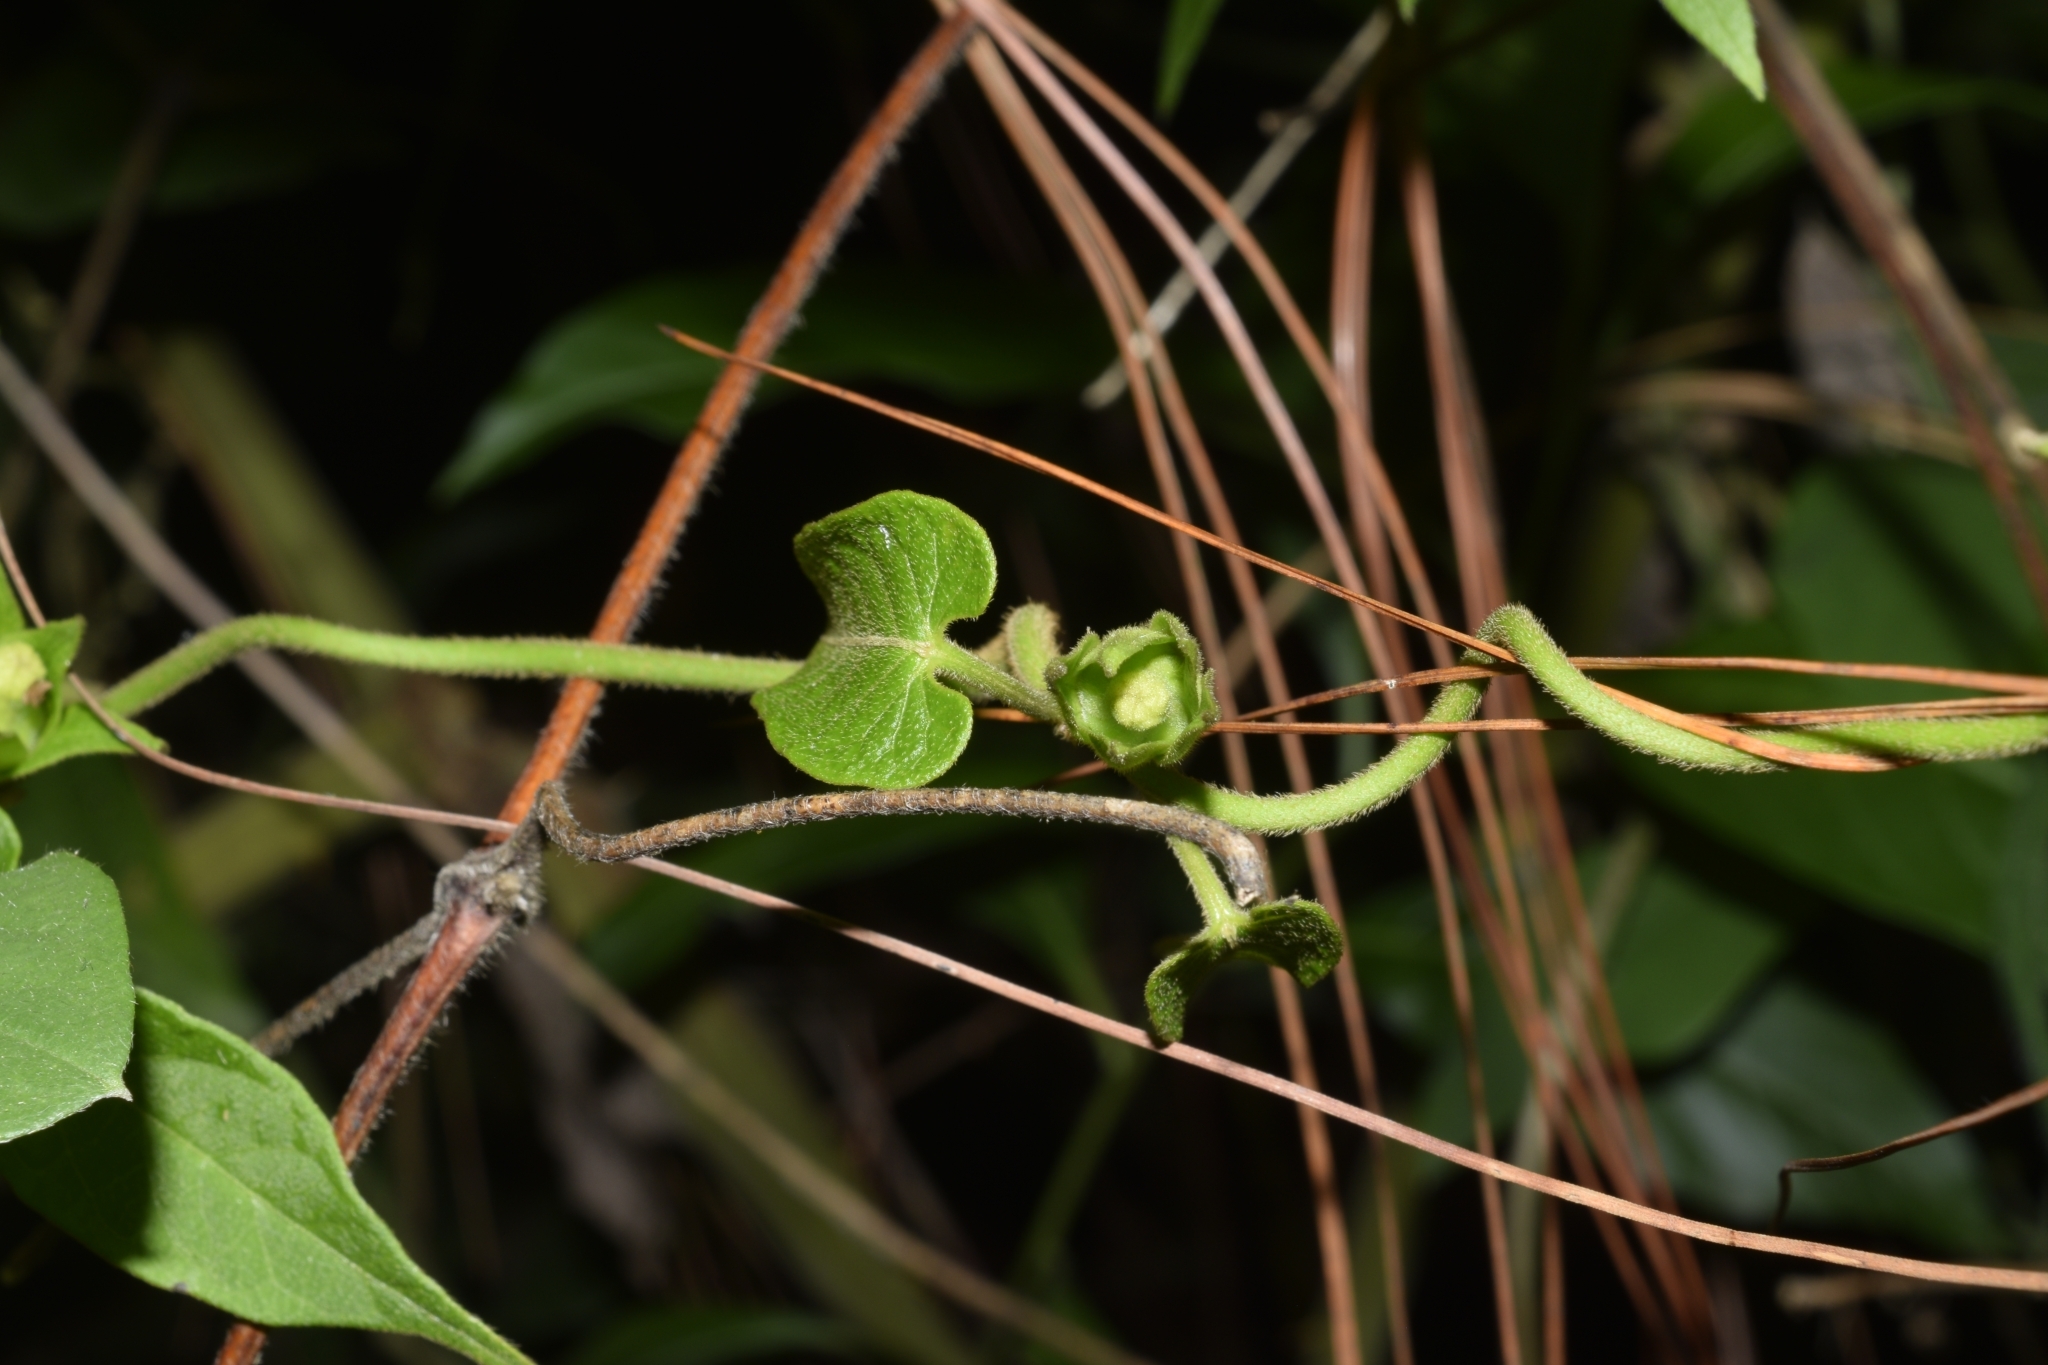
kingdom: Plantae
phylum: Tracheophyta
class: Magnoliopsida
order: Gentianales
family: Apocynaceae
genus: Gonolobus
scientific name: Gonolobus incerianus
